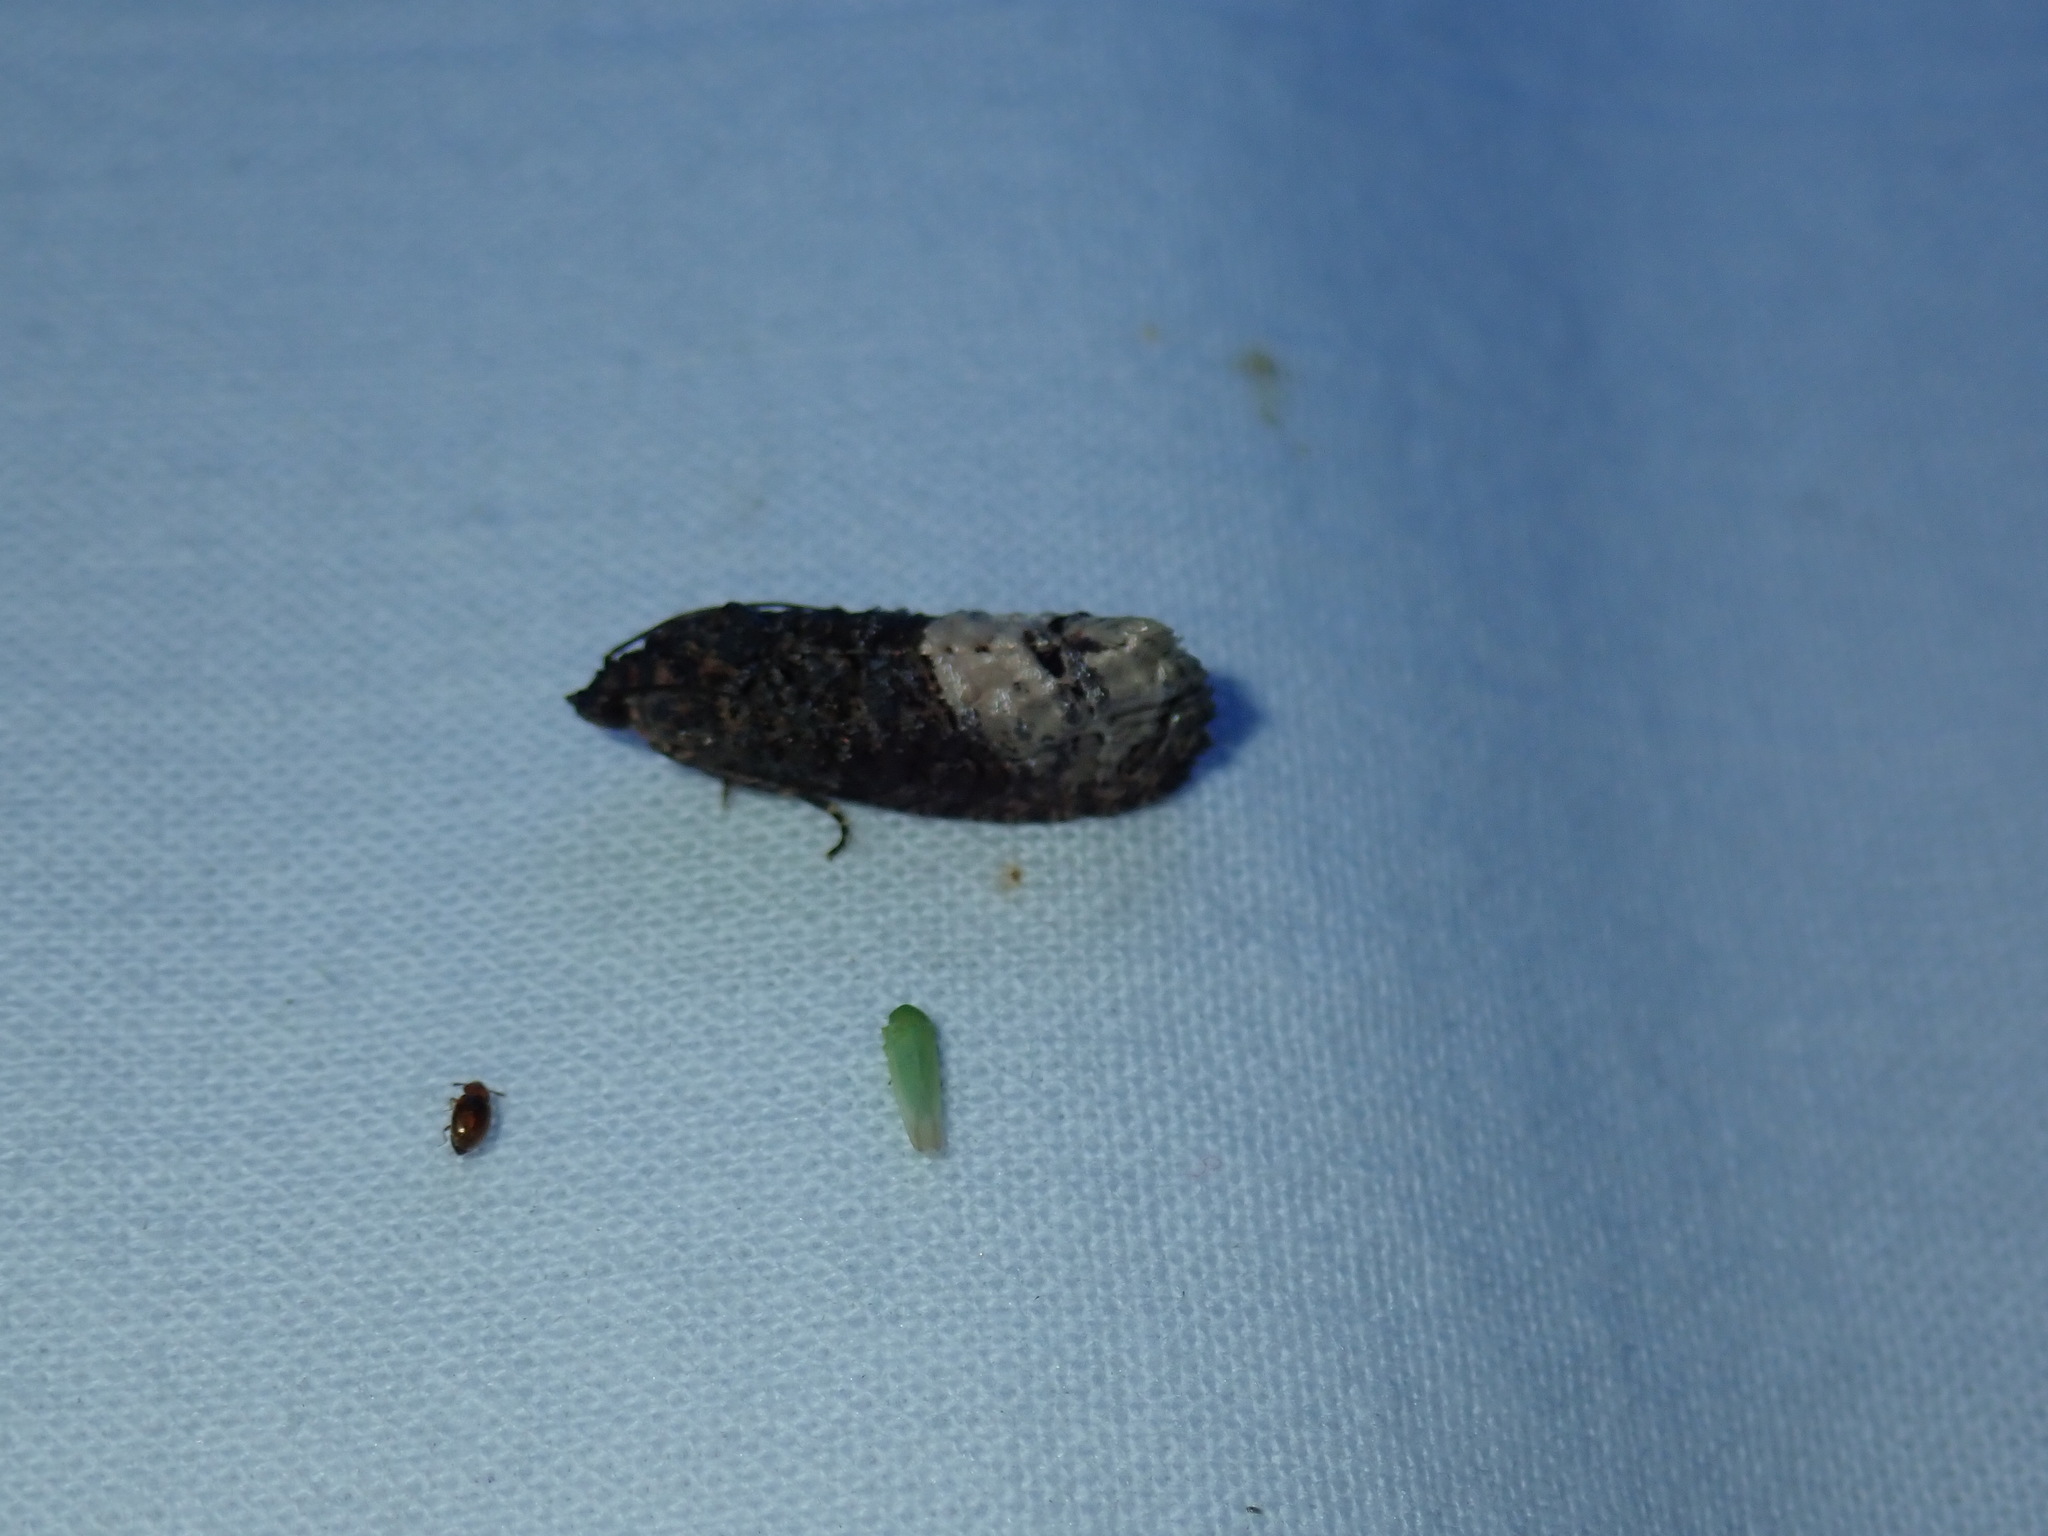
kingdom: Animalia
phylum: Arthropoda
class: Insecta
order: Lepidoptera
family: Tortricidae
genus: Ecdytolopha
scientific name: Ecdytolopha insiticiana
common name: Locust twig borer moth
